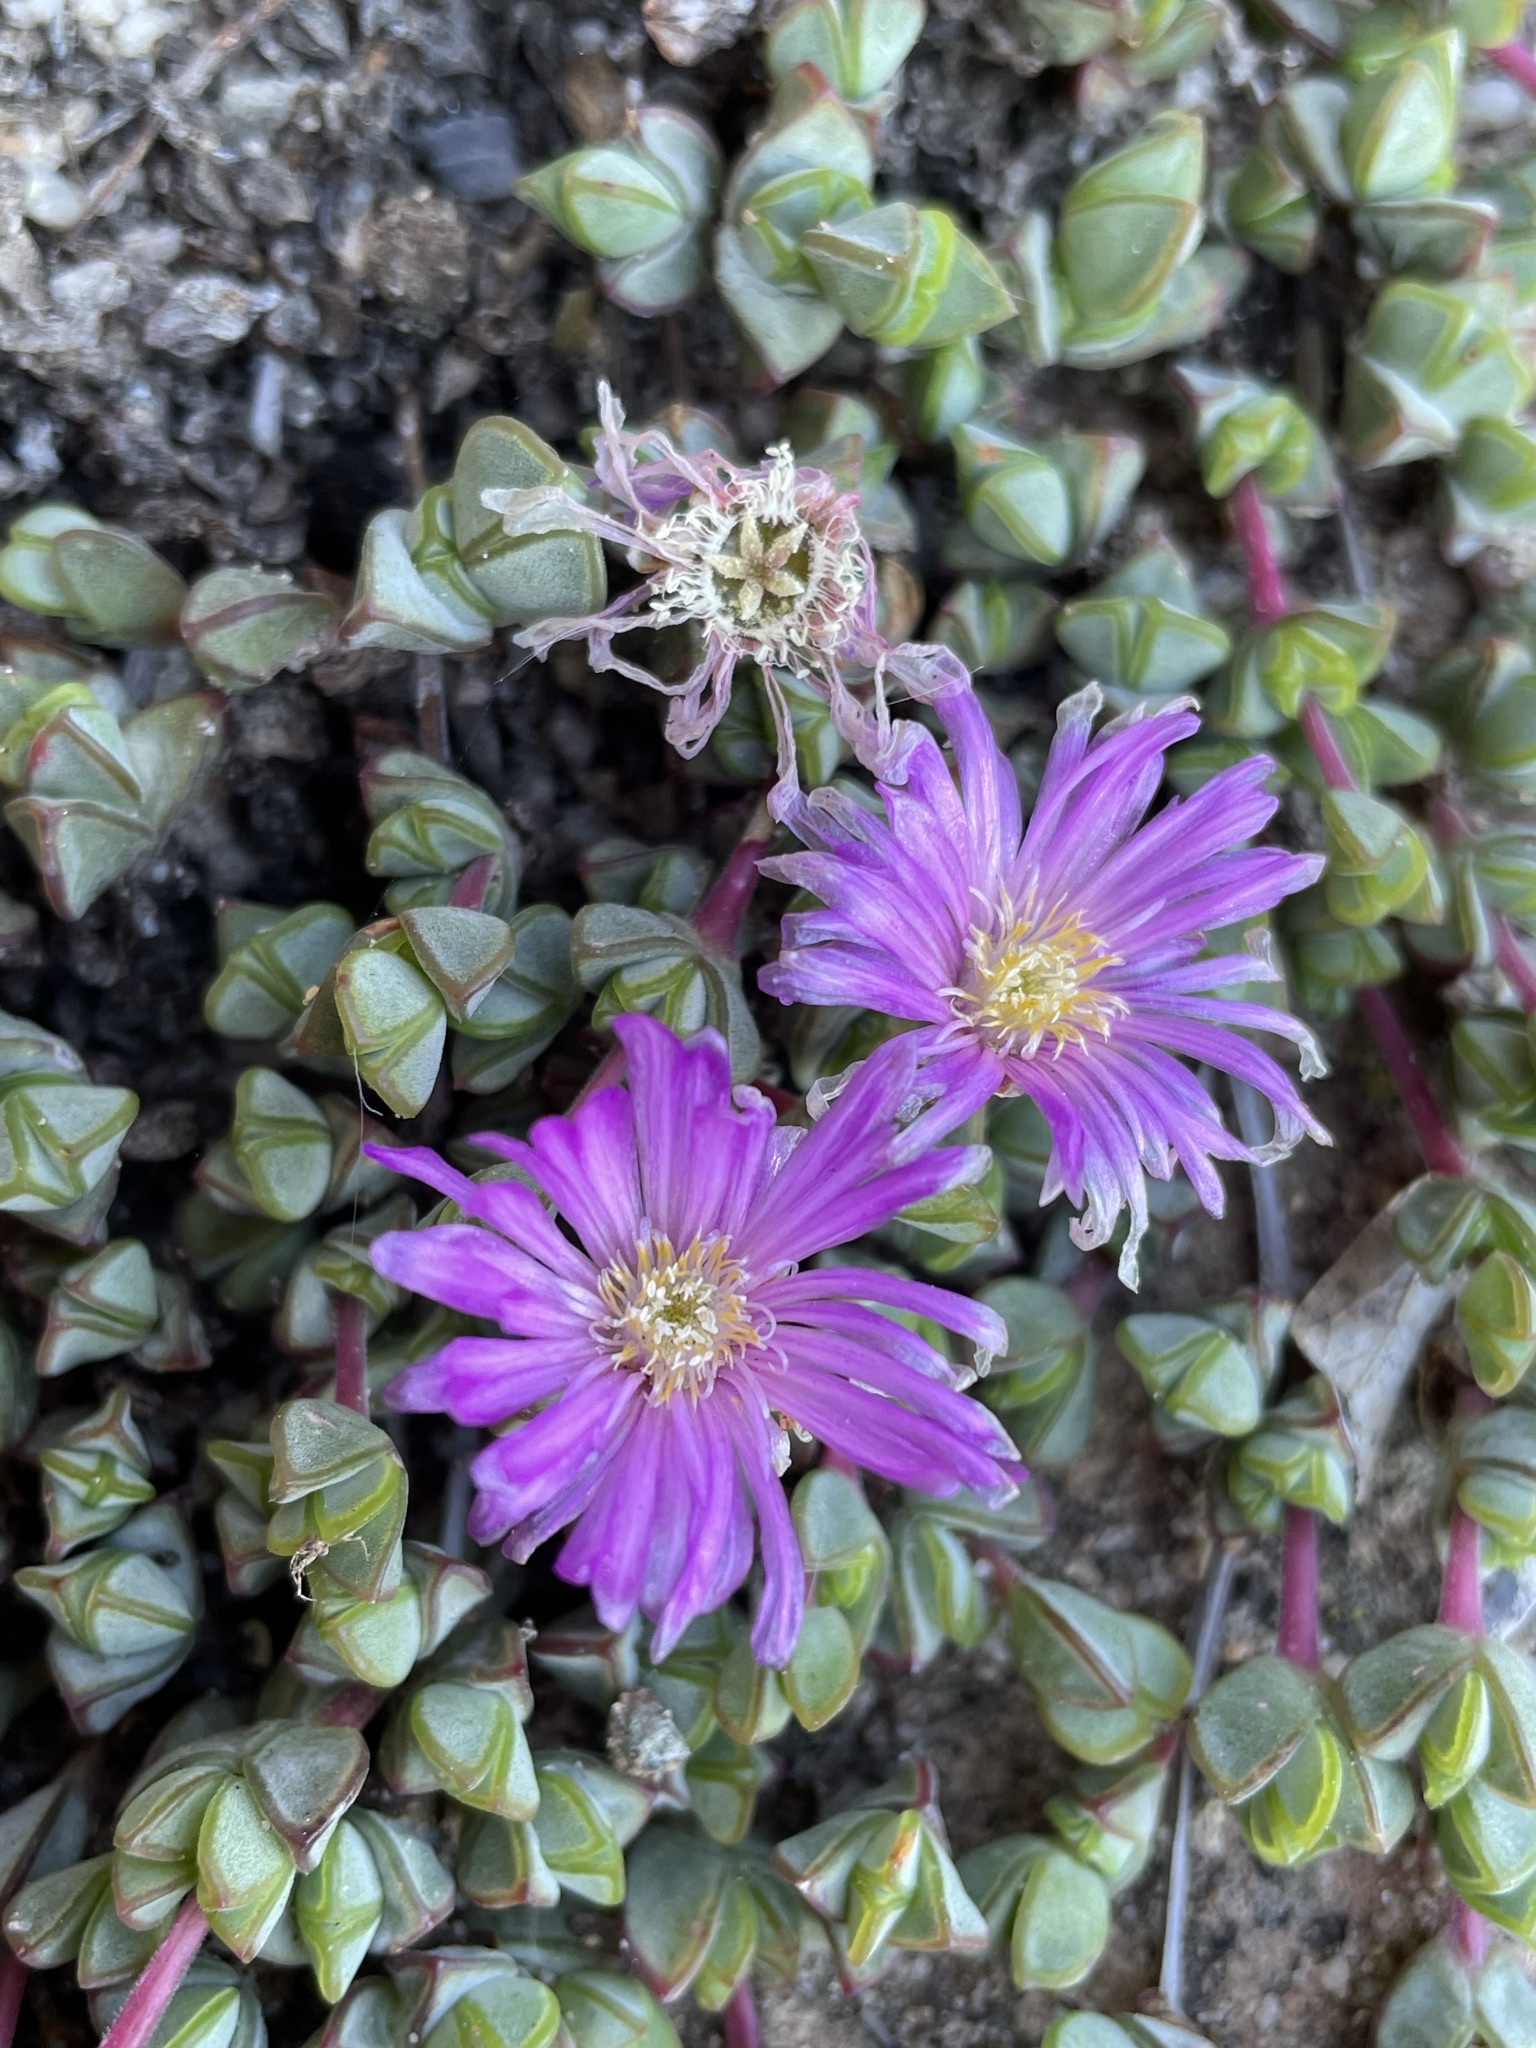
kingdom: Plantae
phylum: Tracheophyta
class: Magnoliopsida
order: Caryophyllales
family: Aizoaceae
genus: Braunsia
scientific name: Braunsia maximiliani
